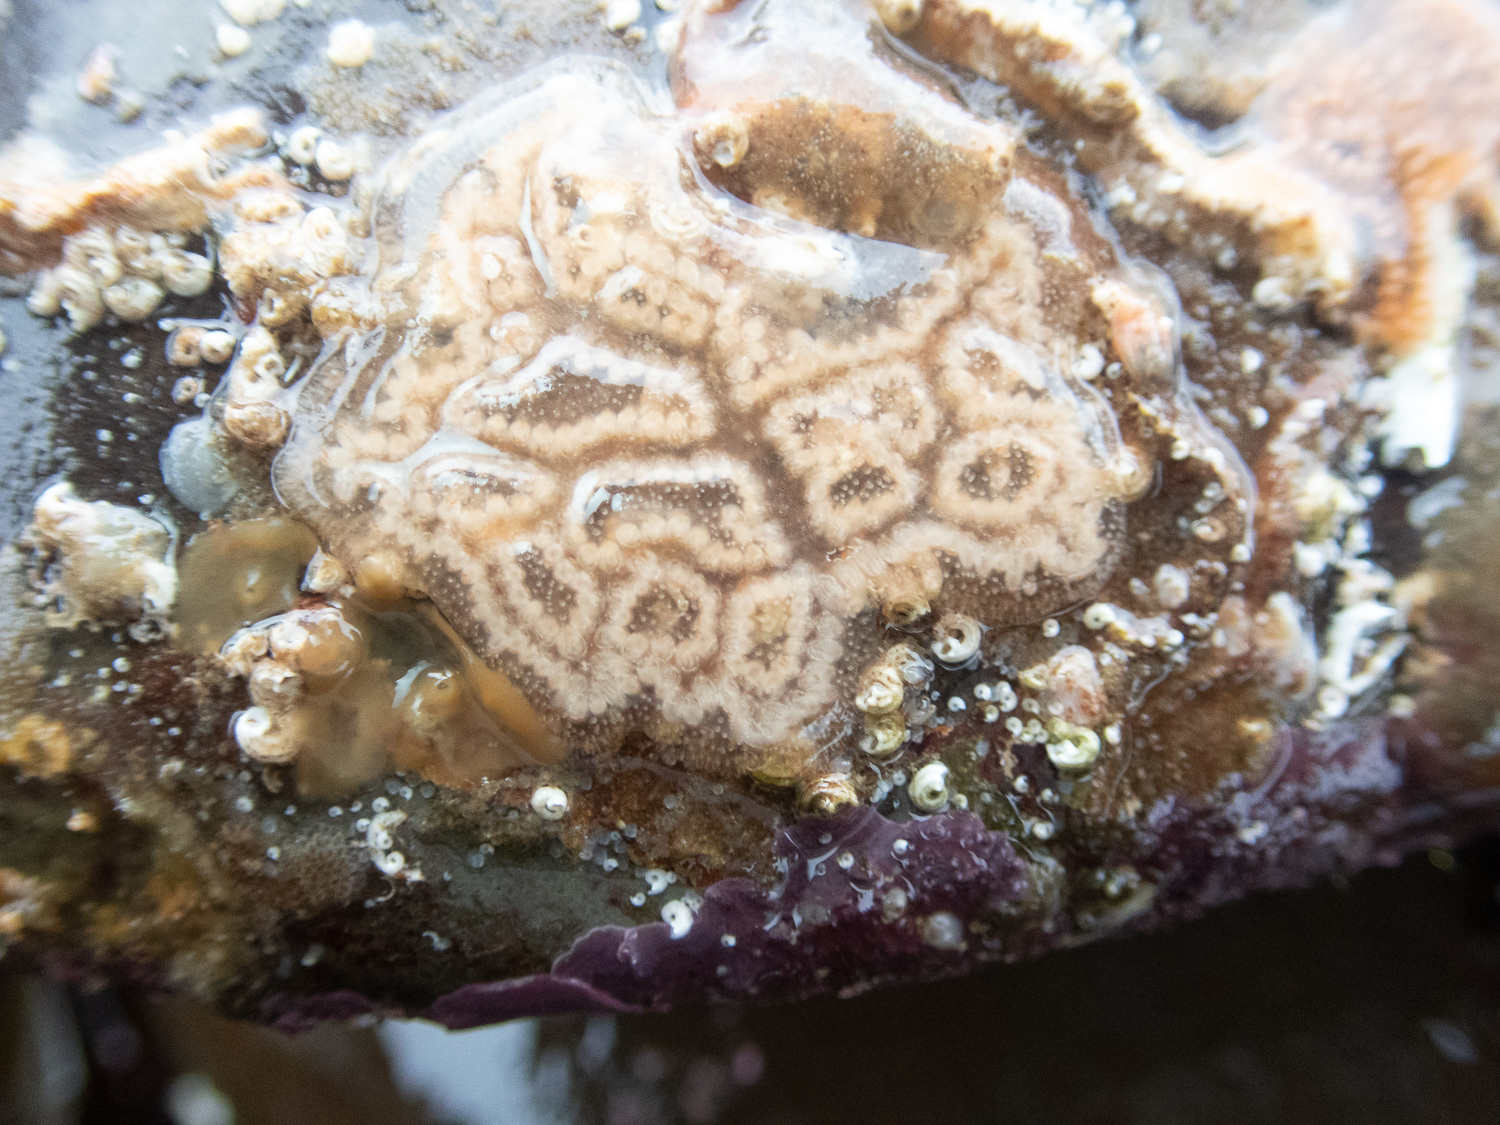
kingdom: Animalia
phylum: Chordata
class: Ascidiacea
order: Stolidobranchia
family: Styelidae
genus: Botrylloides
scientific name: Botrylloides leachii
